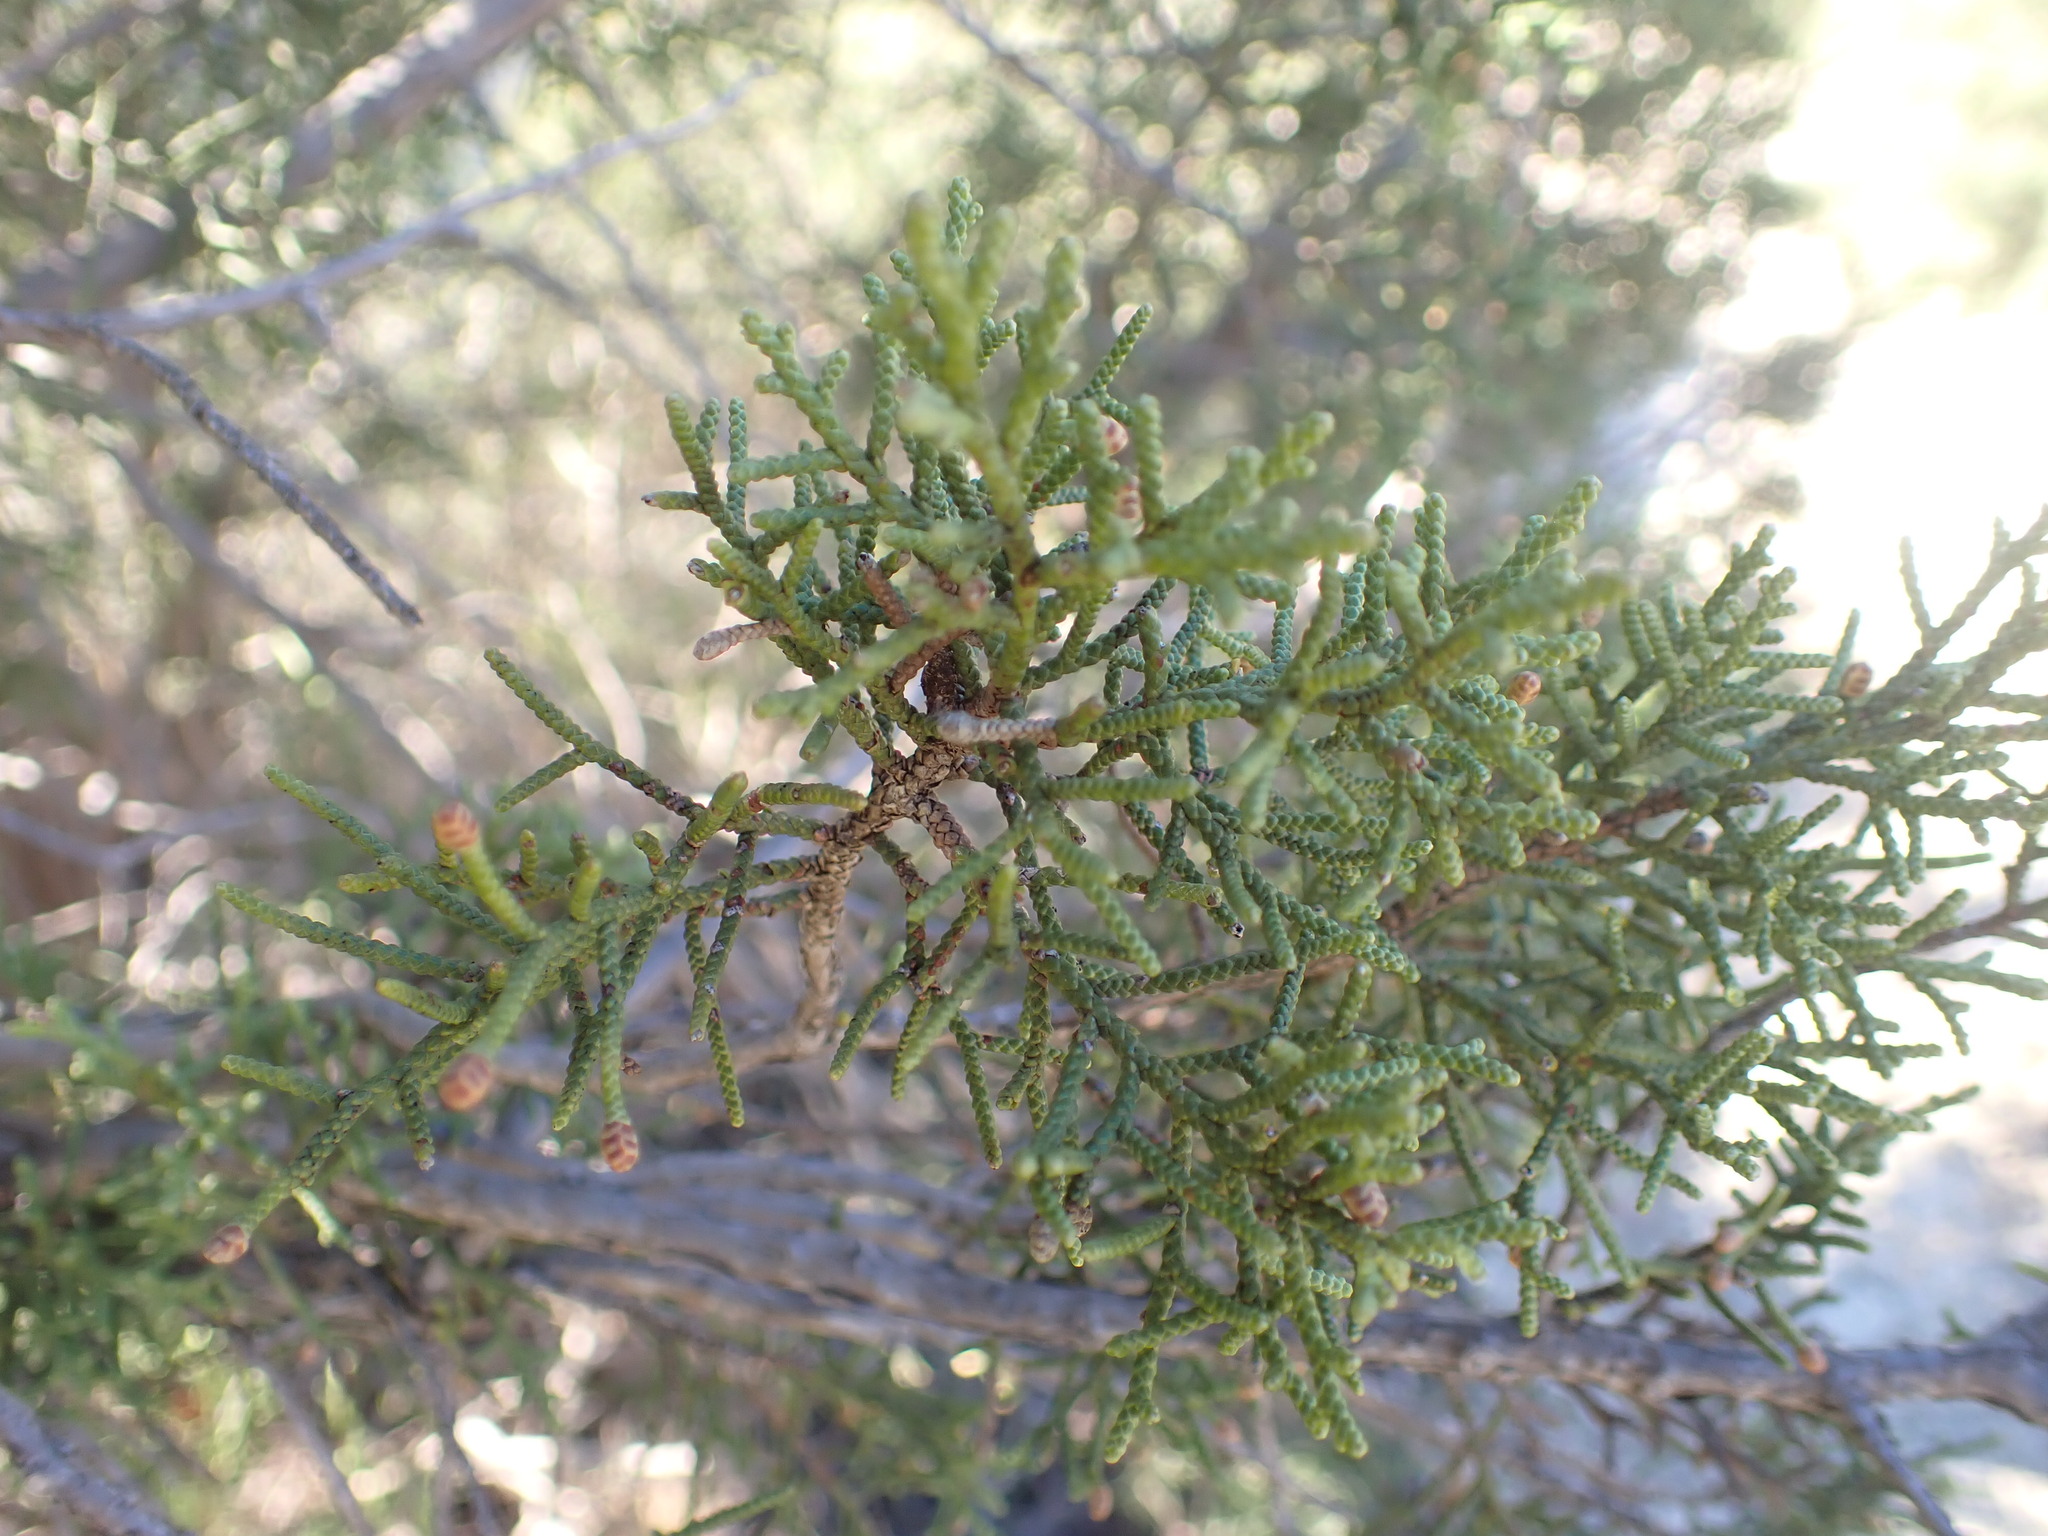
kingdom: Plantae
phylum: Tracheophyta
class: Pinopsida
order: Pinales
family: Cupressaceae
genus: Juniperus
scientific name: Juniperus phoenicea
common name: Phoenician juniper
